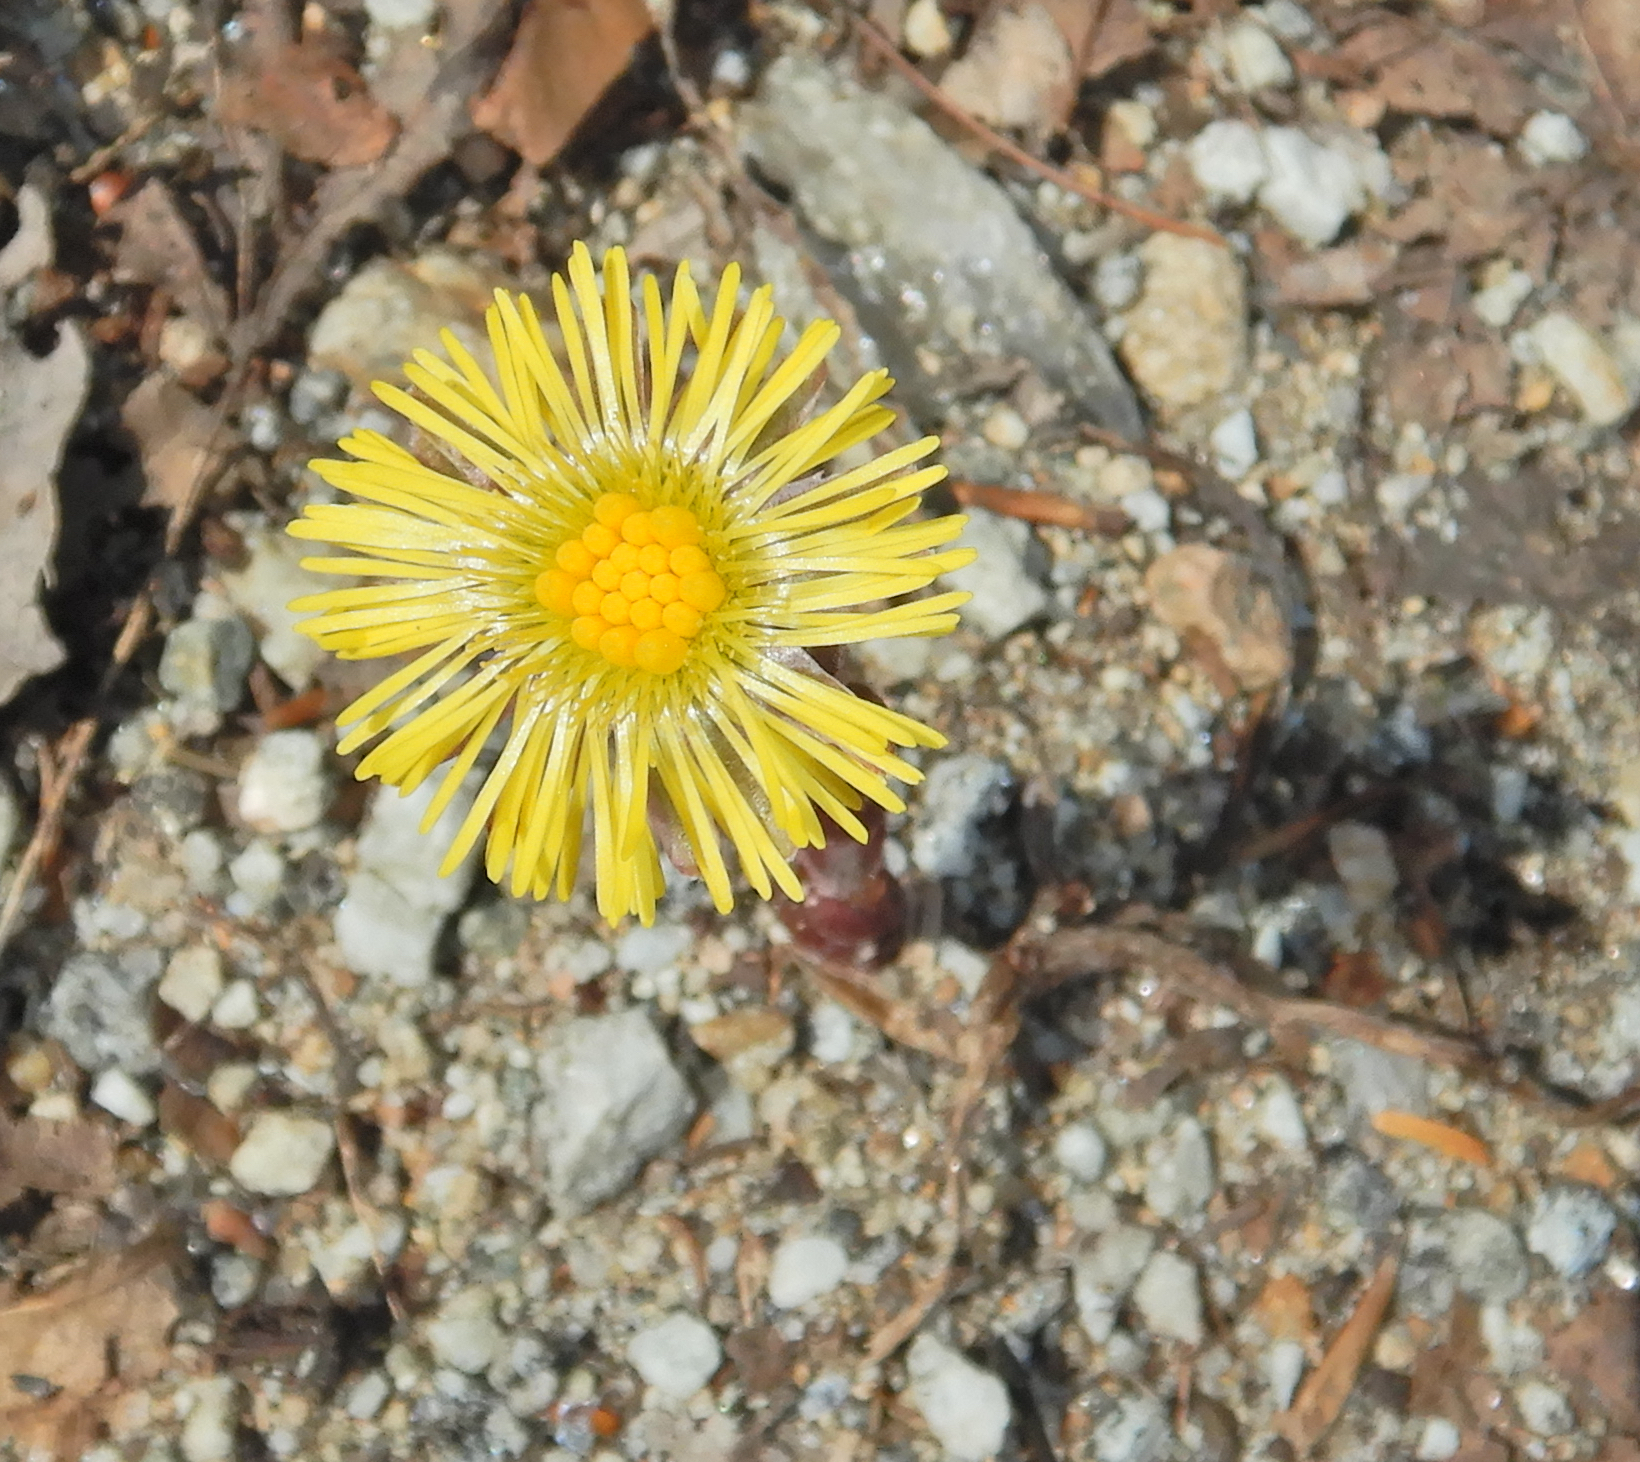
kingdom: Plantae
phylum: Tracheophyta
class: Magnoliopsida
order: Asterales
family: Asteraceae
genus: Tussilago
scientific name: Tussilago farfara
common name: Coltsfoot
